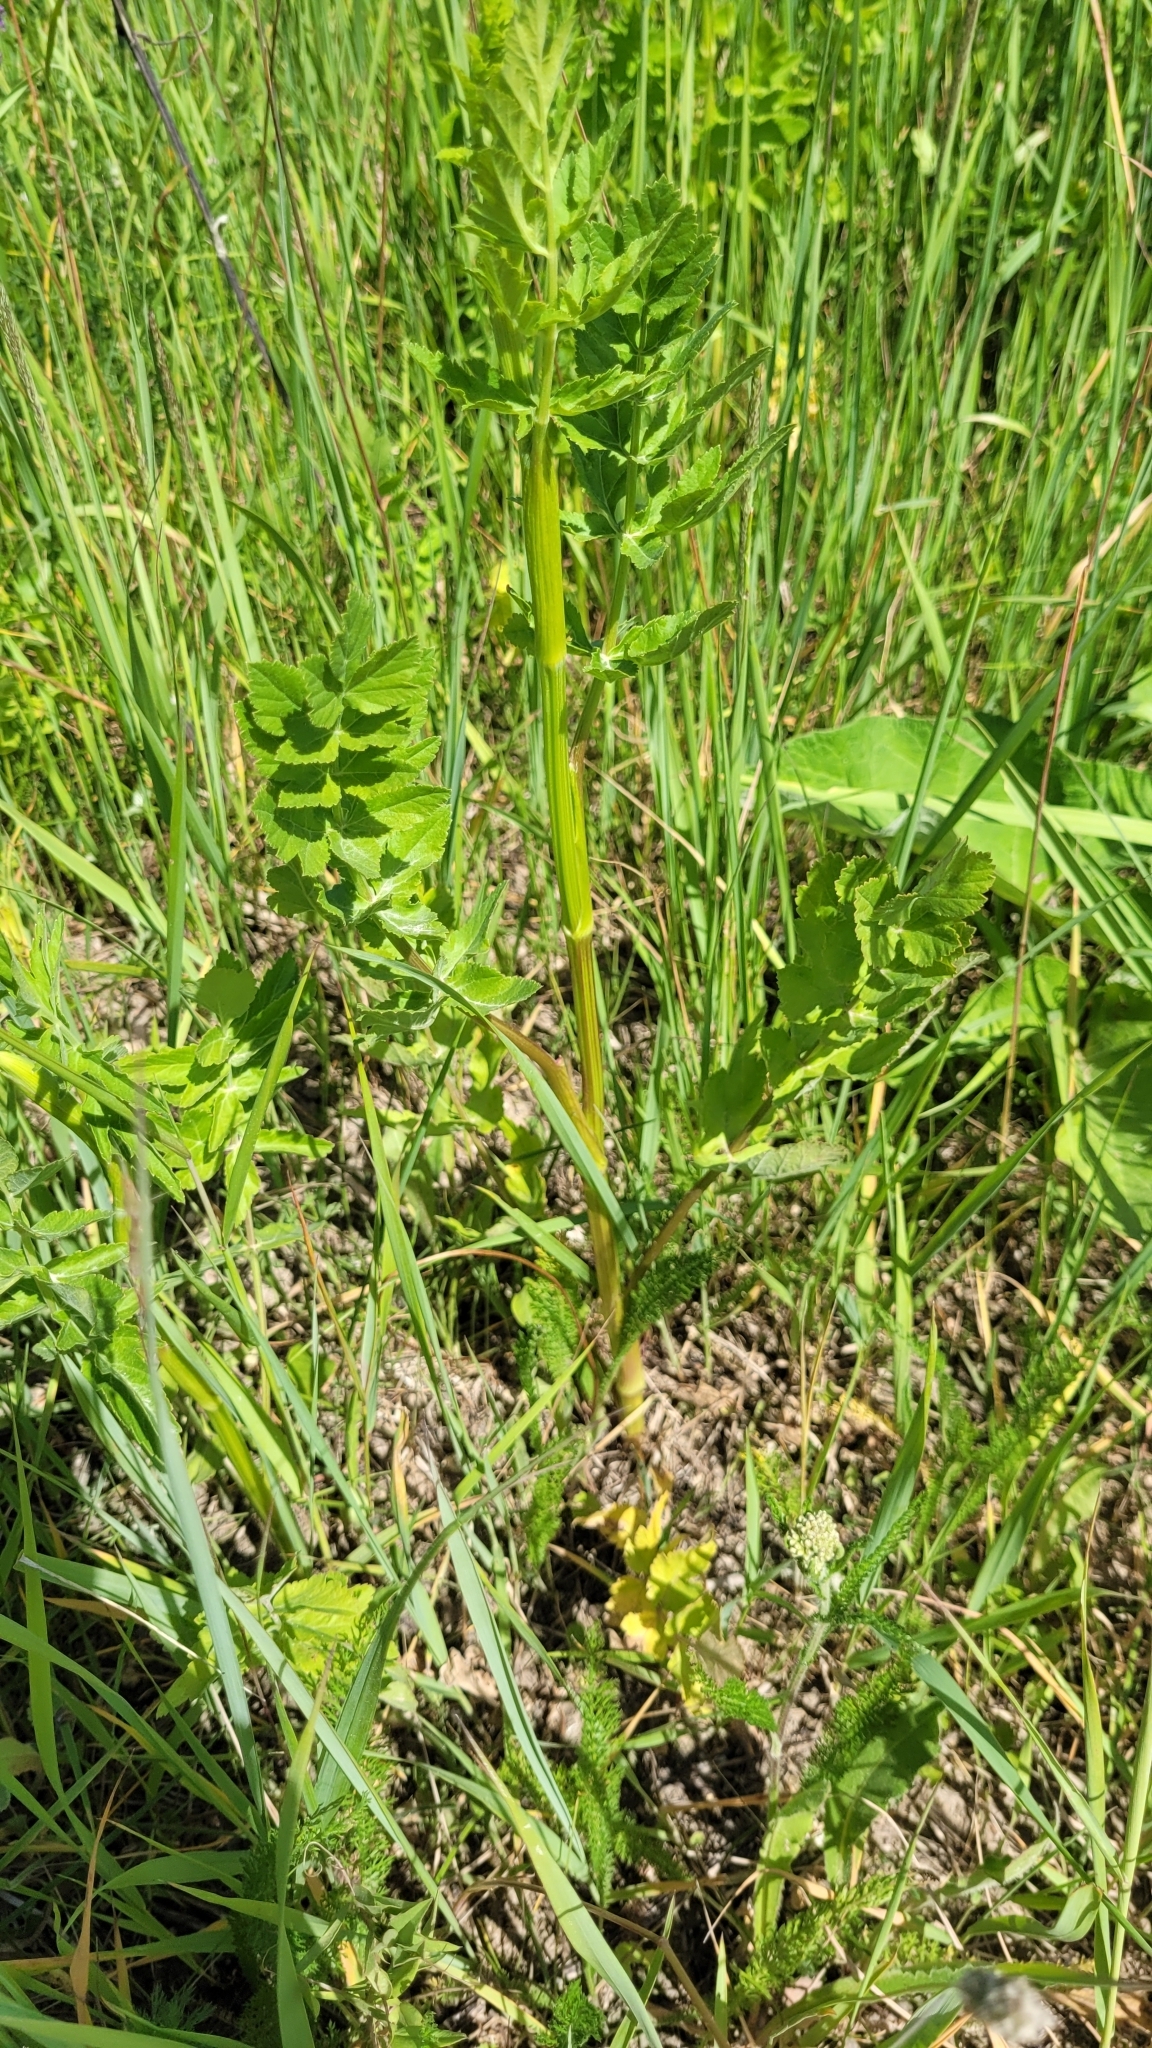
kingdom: Plantae
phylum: Tracheophyta
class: Magnoliopsida
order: Apiales
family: Apiaceae
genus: Pastinaca
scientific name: Pastinaca sativa
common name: Wild parsnip
